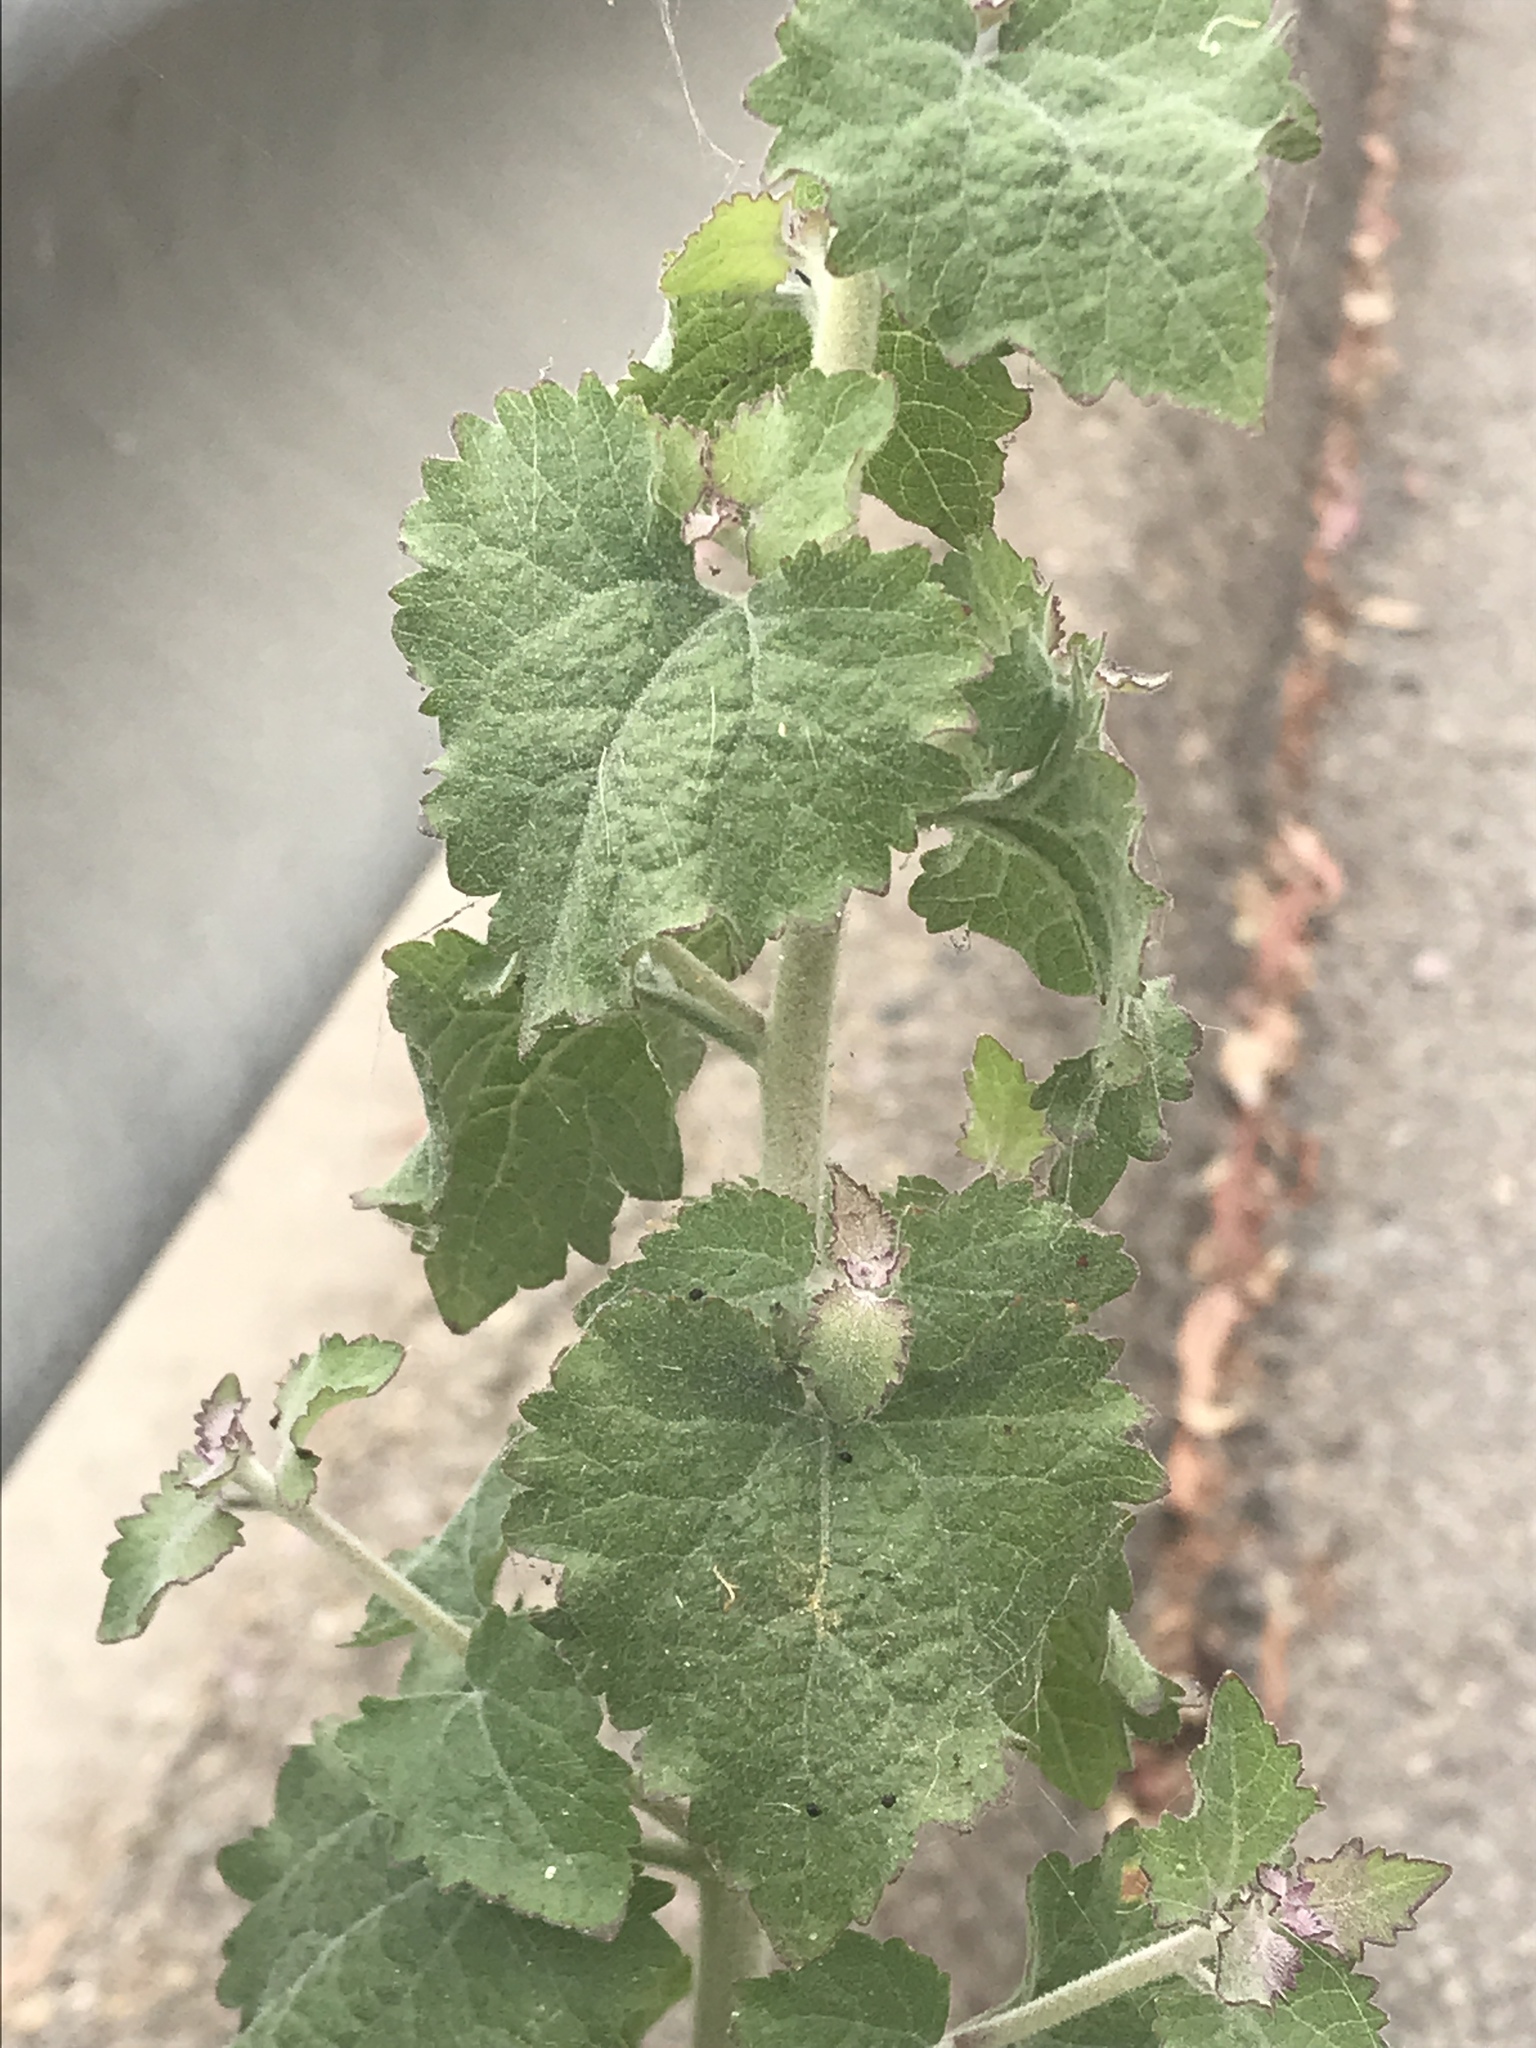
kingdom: Plantae
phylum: Tracheophyta
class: Magnoliopsida
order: Asterales
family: Asteraceae
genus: Brickellia
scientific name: Brickellia californica
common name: California brickellbush
